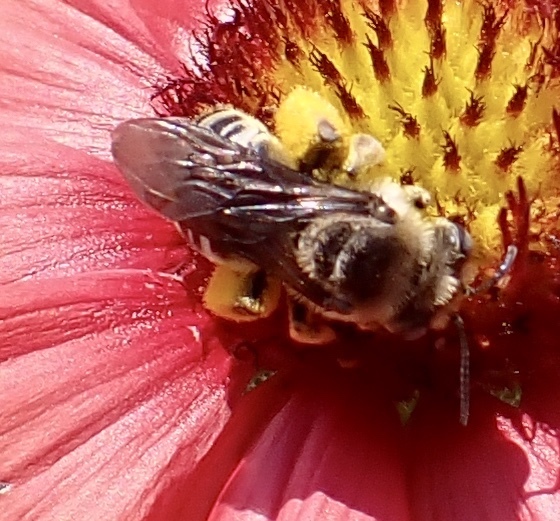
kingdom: Animalia
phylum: Arthropoda
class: Insecta
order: Hymenoptera
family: Apidae
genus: Melissodes
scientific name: Melissodes communis
